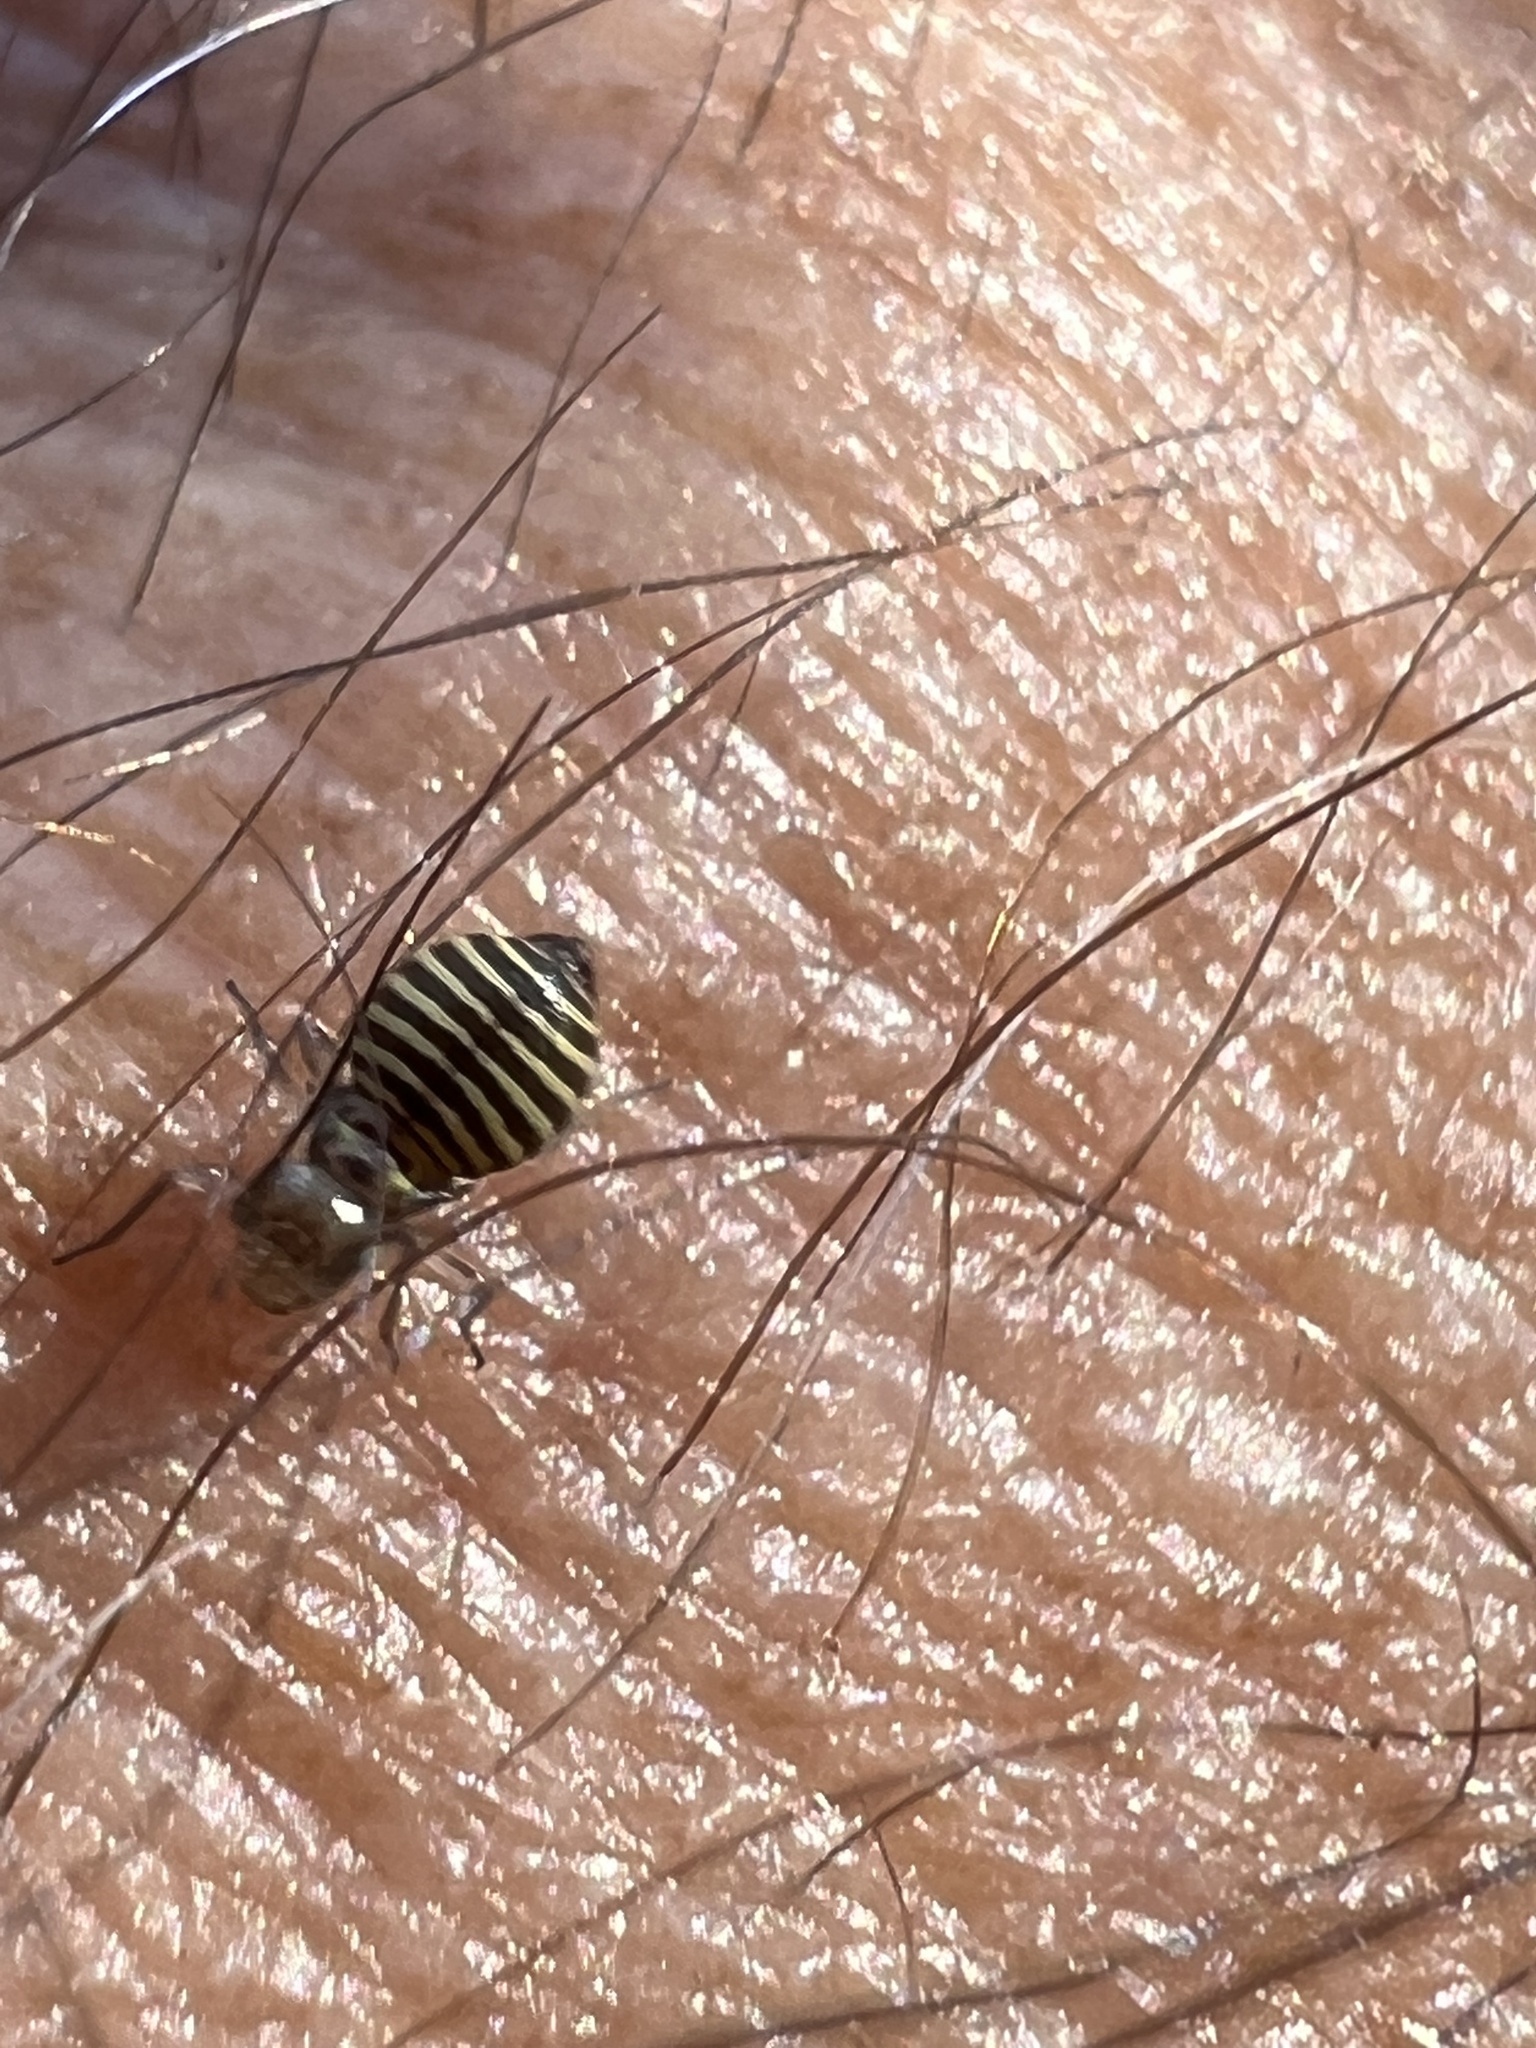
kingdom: Animalia
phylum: Arthropoda
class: Insecta
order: Psocodea
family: Psocidae
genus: Cerastipsocus
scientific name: Cerastipsocus venosus
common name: Tree cattle
